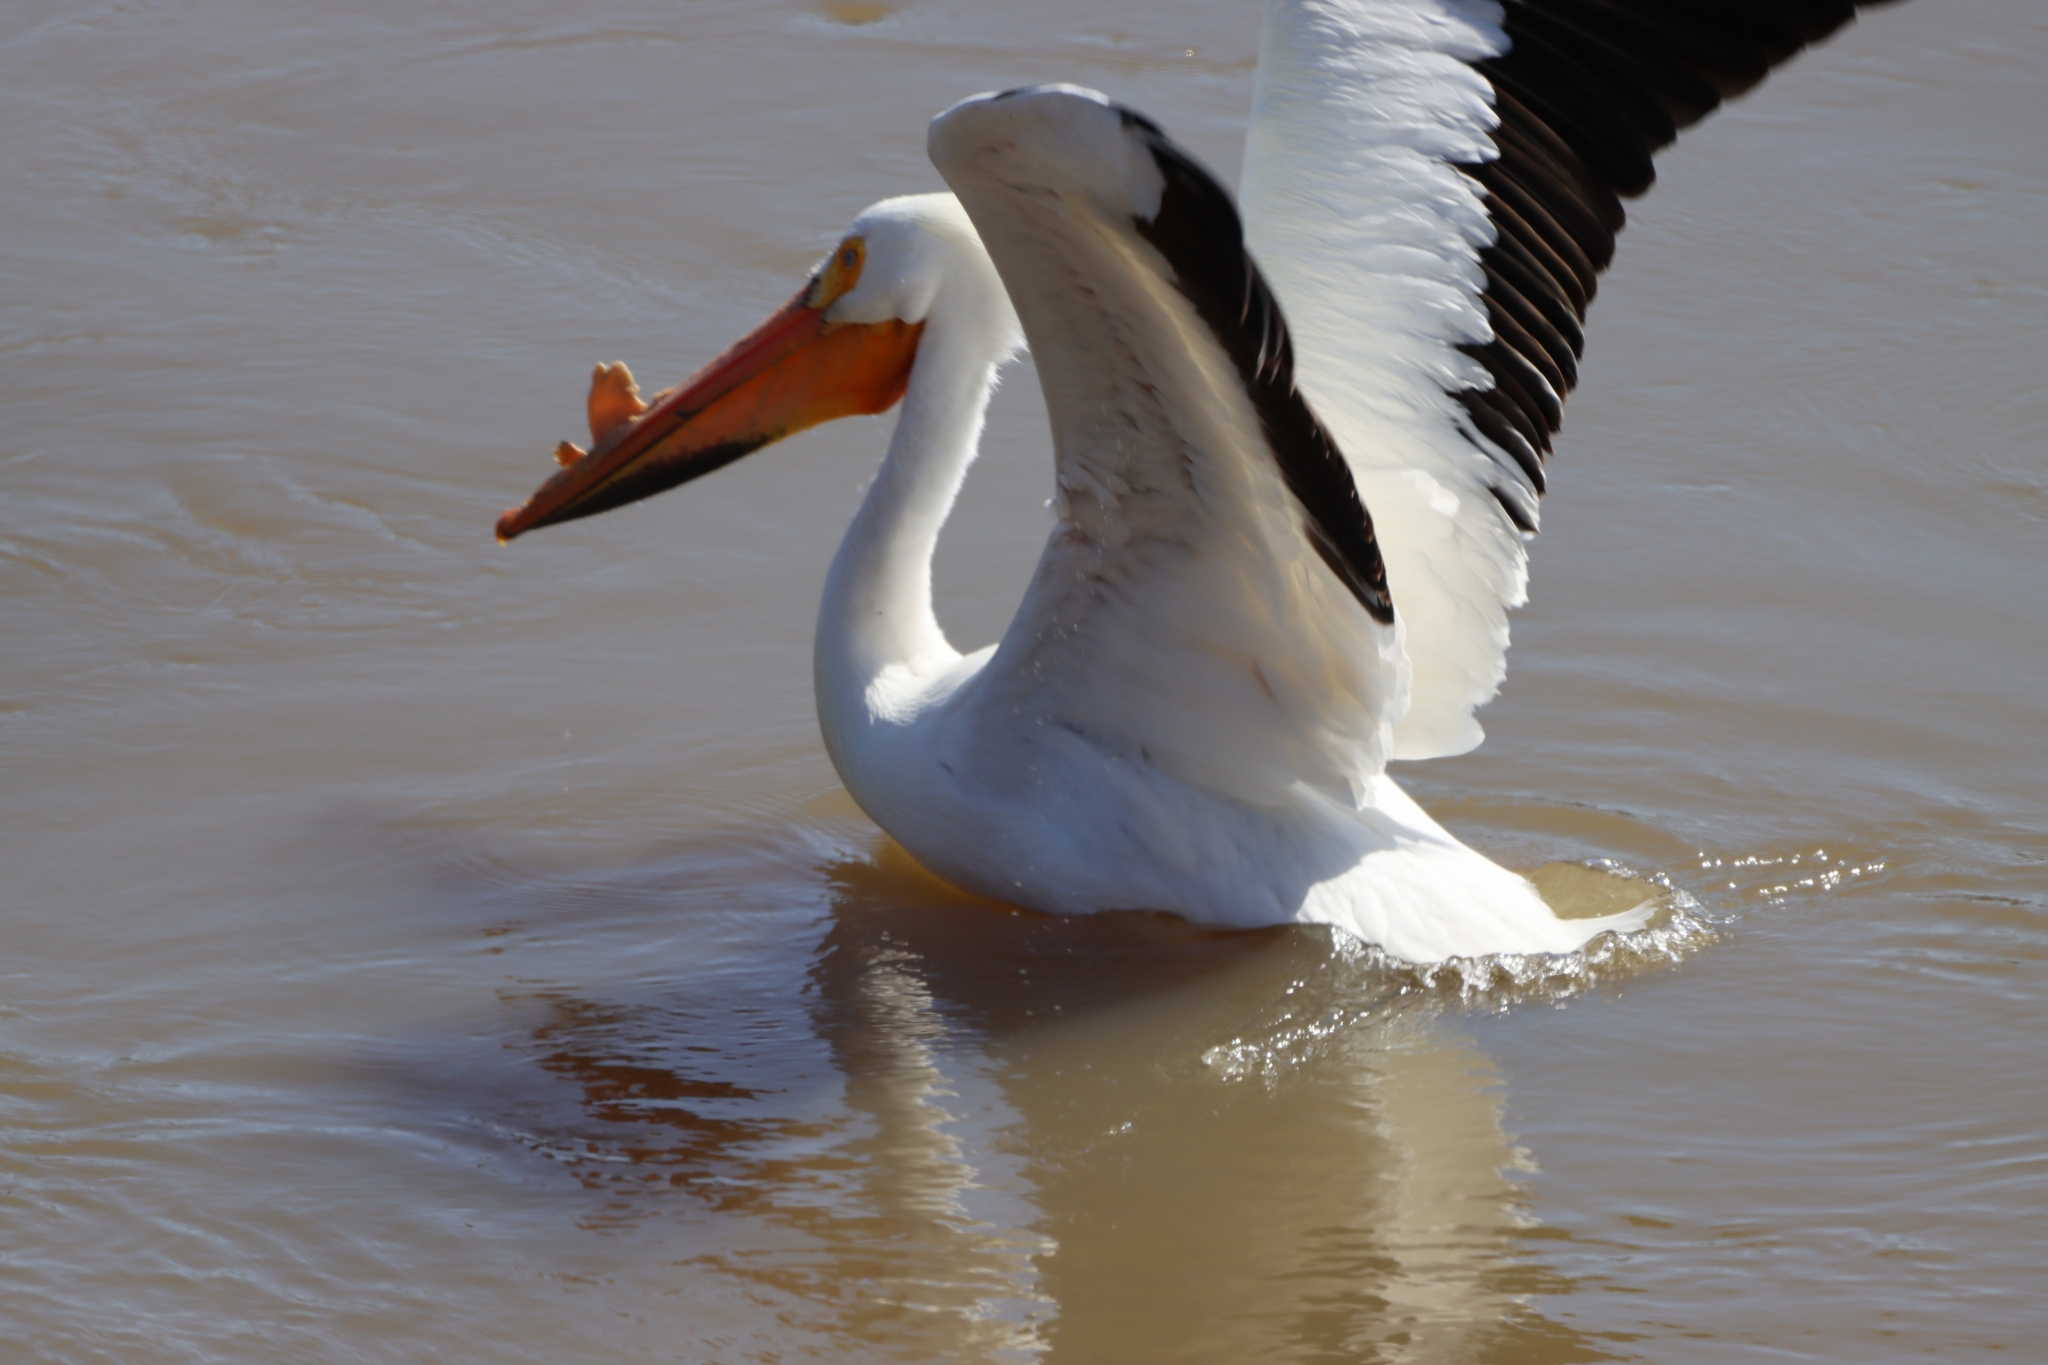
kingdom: Animalia
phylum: Chordata
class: Aves
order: Pelecaniformes
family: Pelecanidae
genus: Pelecanus
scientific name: Pelecanus erythrorhynchos
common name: American white pelican
